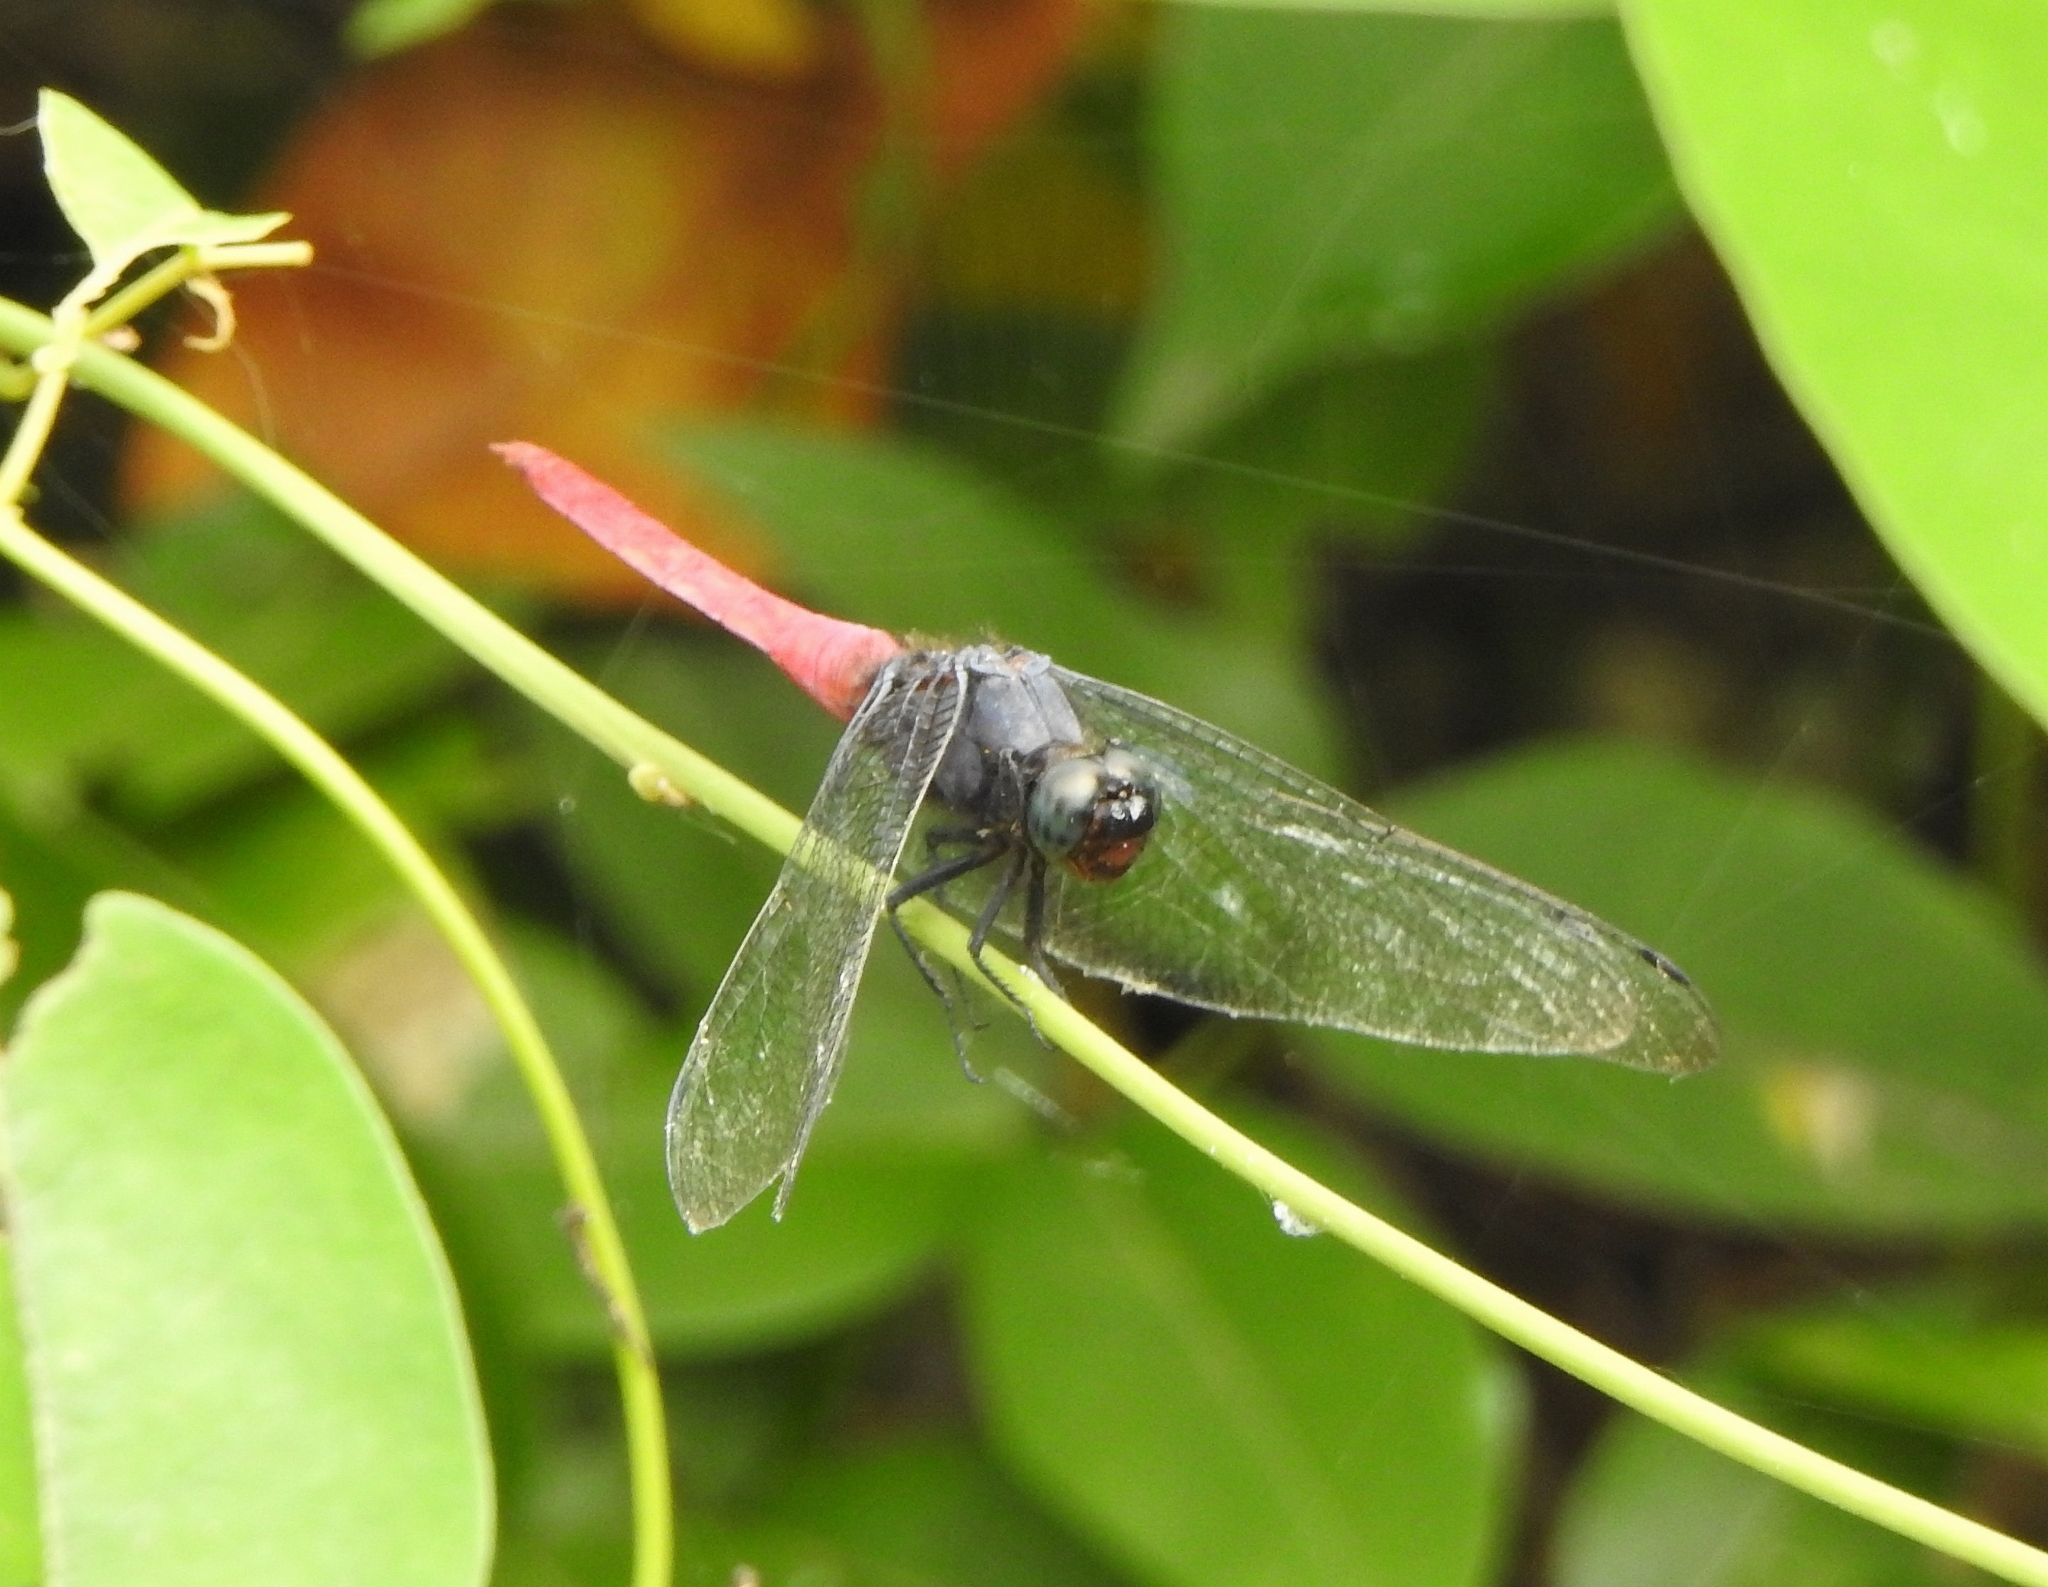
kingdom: Animalia
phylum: Arthropoda
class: Insecta
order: Odonata
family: Libellulidae
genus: Orthetrum
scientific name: Orthetrum pruinosum
